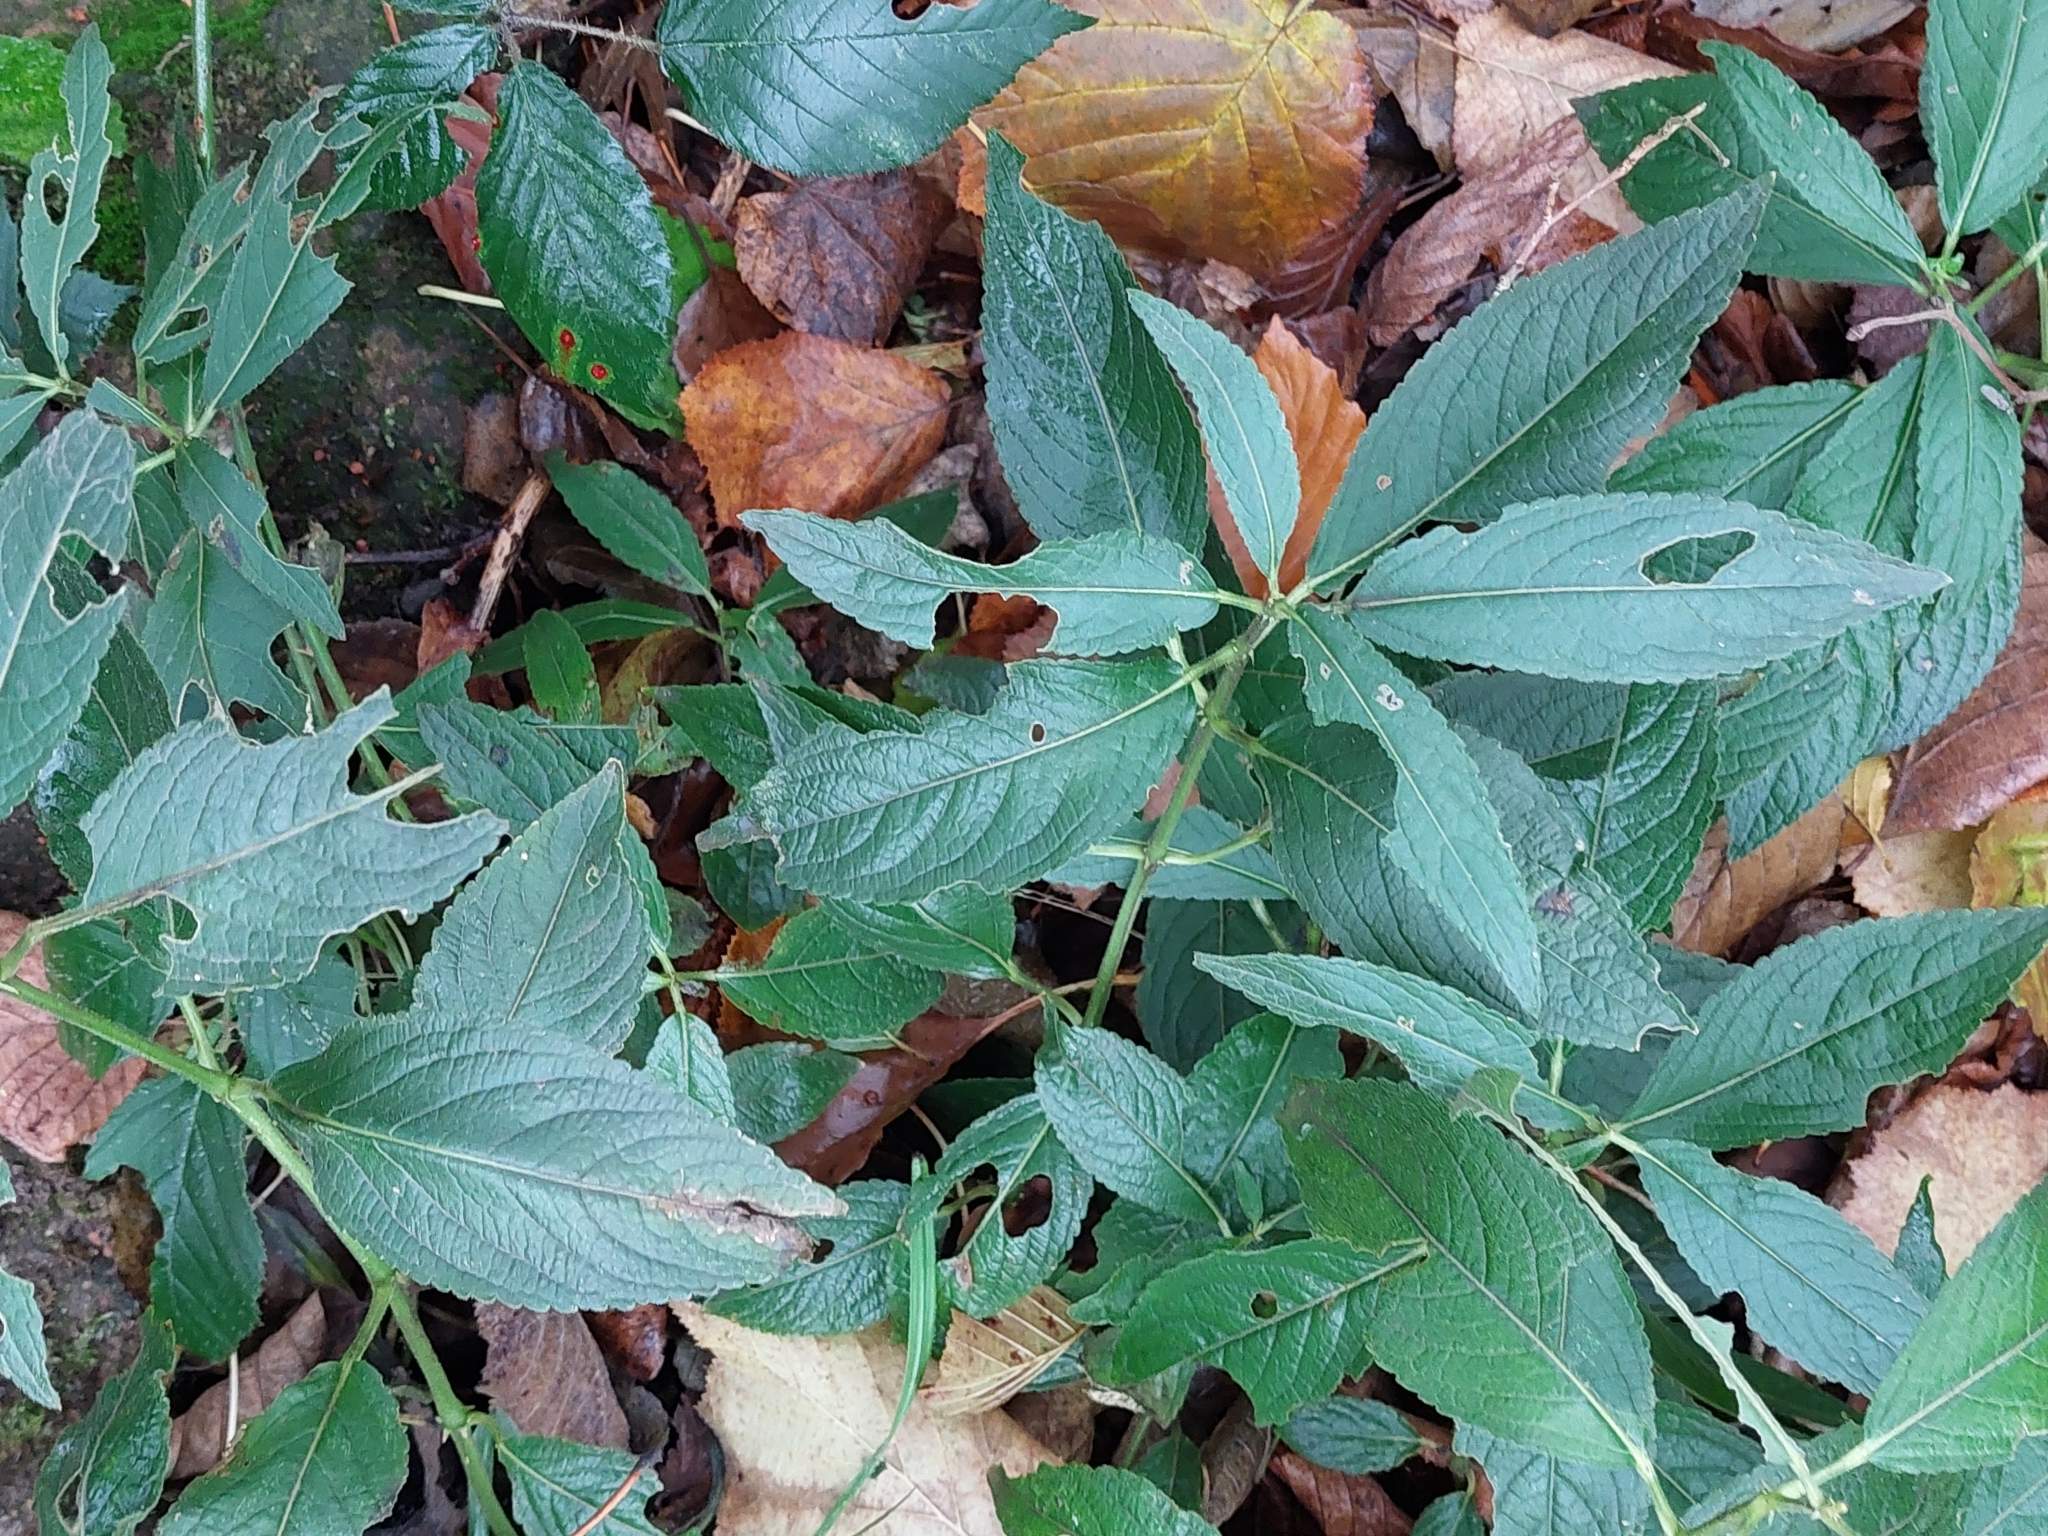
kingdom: Plantae
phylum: Tracheophyta
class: Magnoliopsida
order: Malpighiales
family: Euphorbiaceae
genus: Mercurialis
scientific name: Mercurialis perennis
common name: Dog mercury
